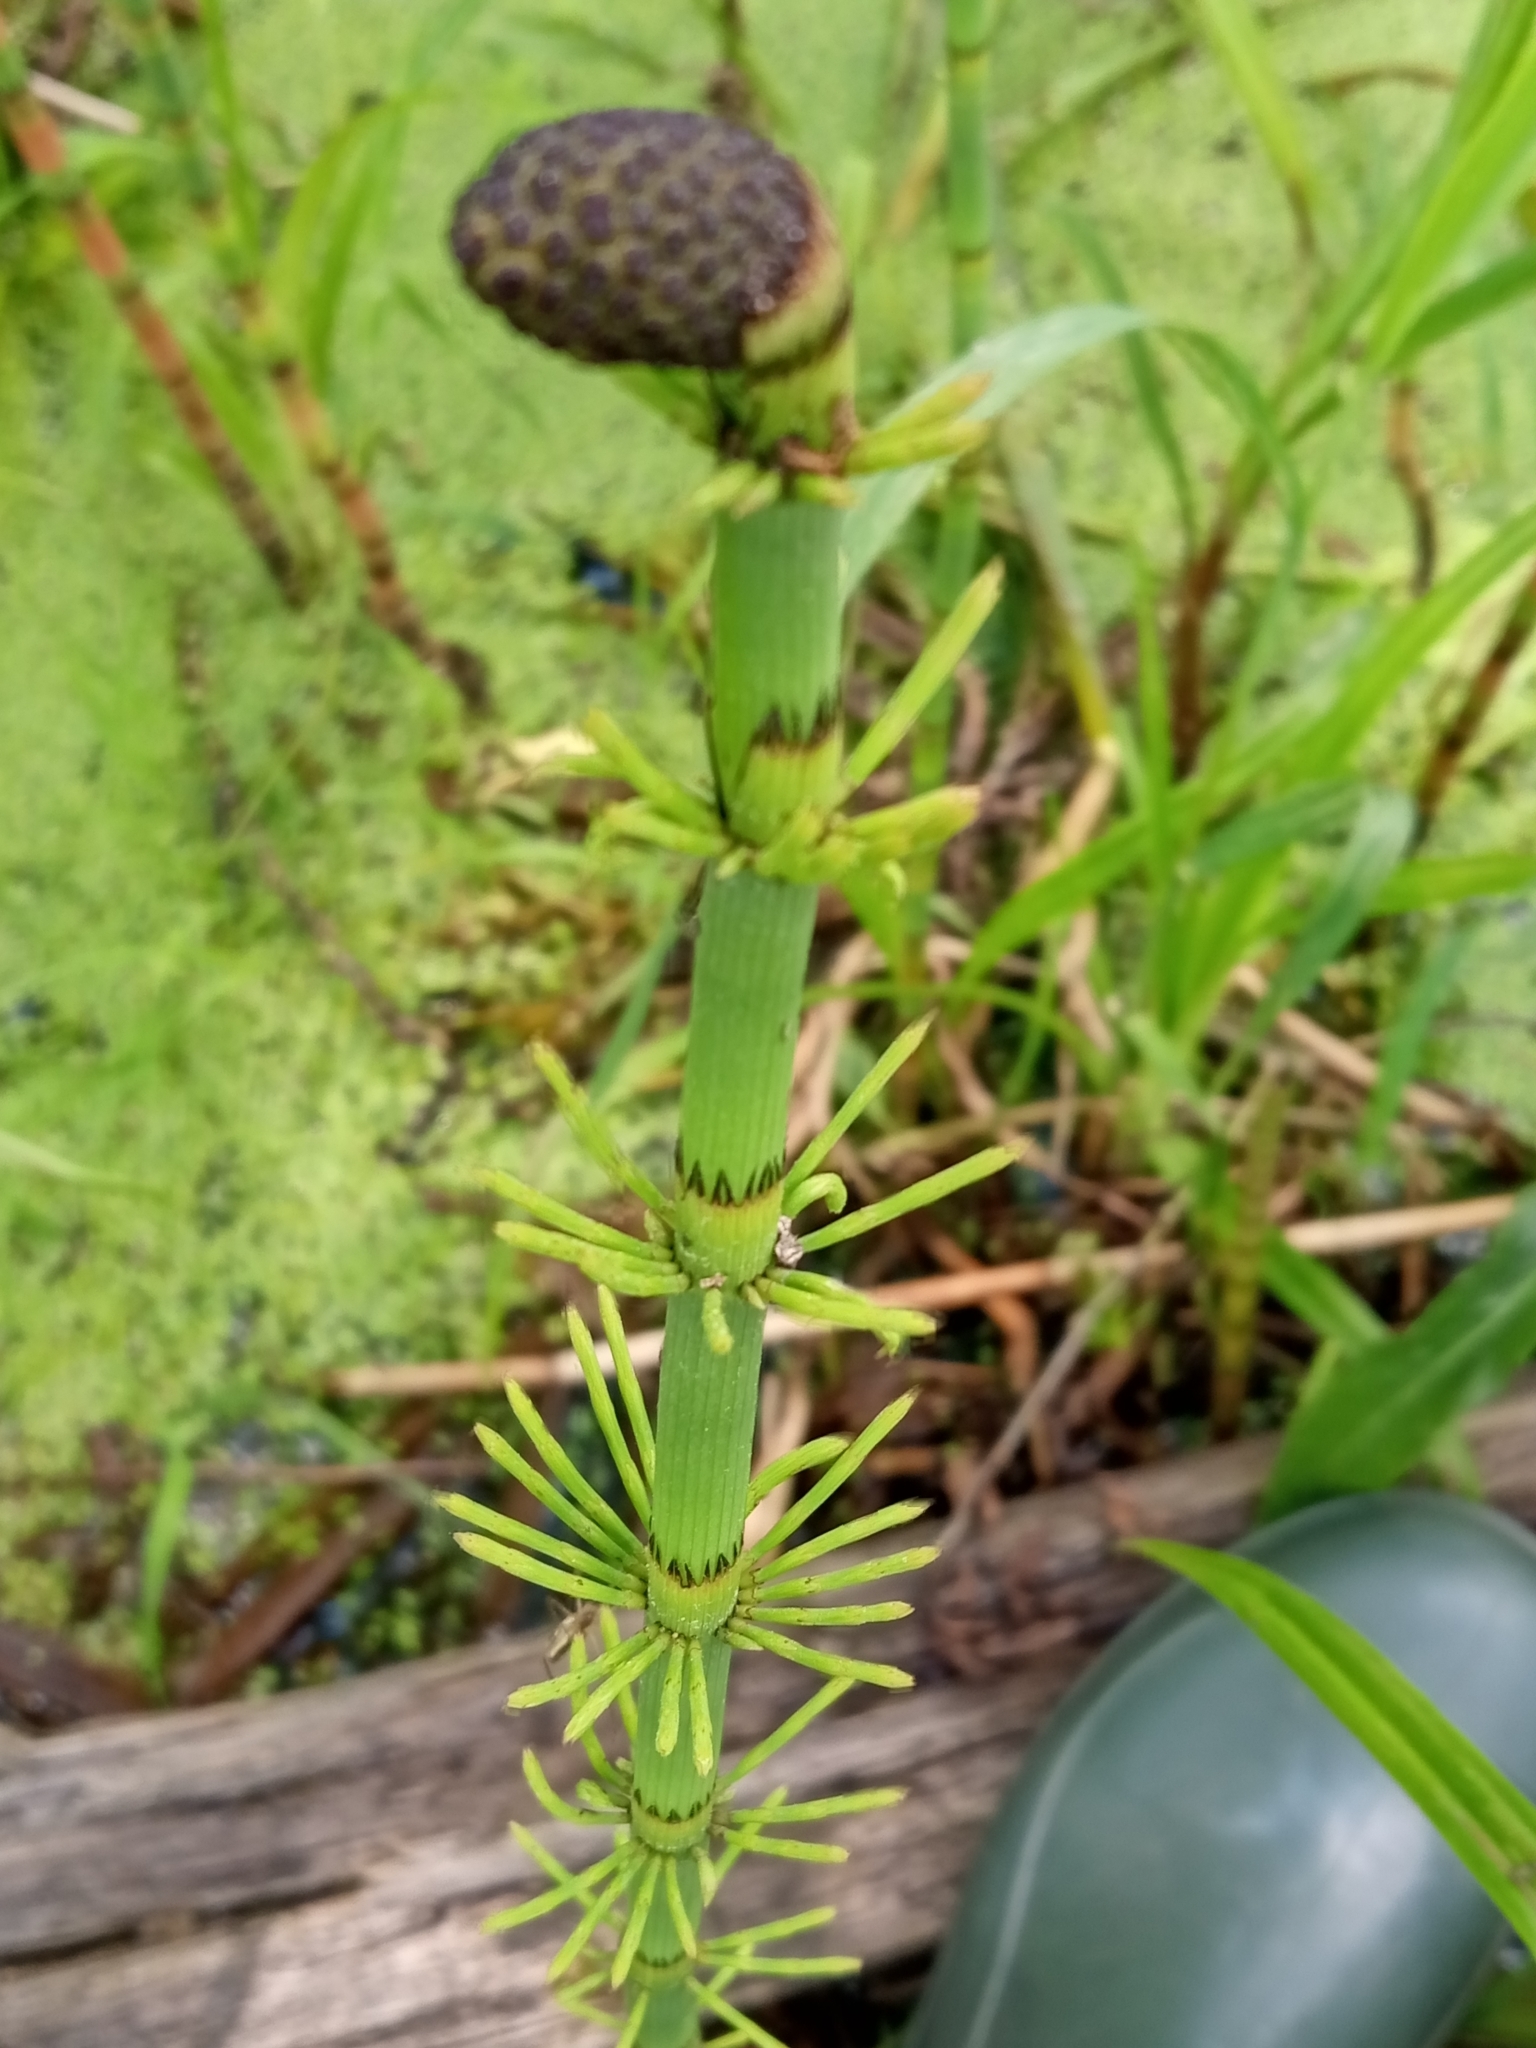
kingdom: Plantae
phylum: Tracheophyta
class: Polypodiopsida
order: Equisetales
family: Equisetaceae
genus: Equisetum
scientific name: Equisetum fluviatile
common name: Water horsetail
